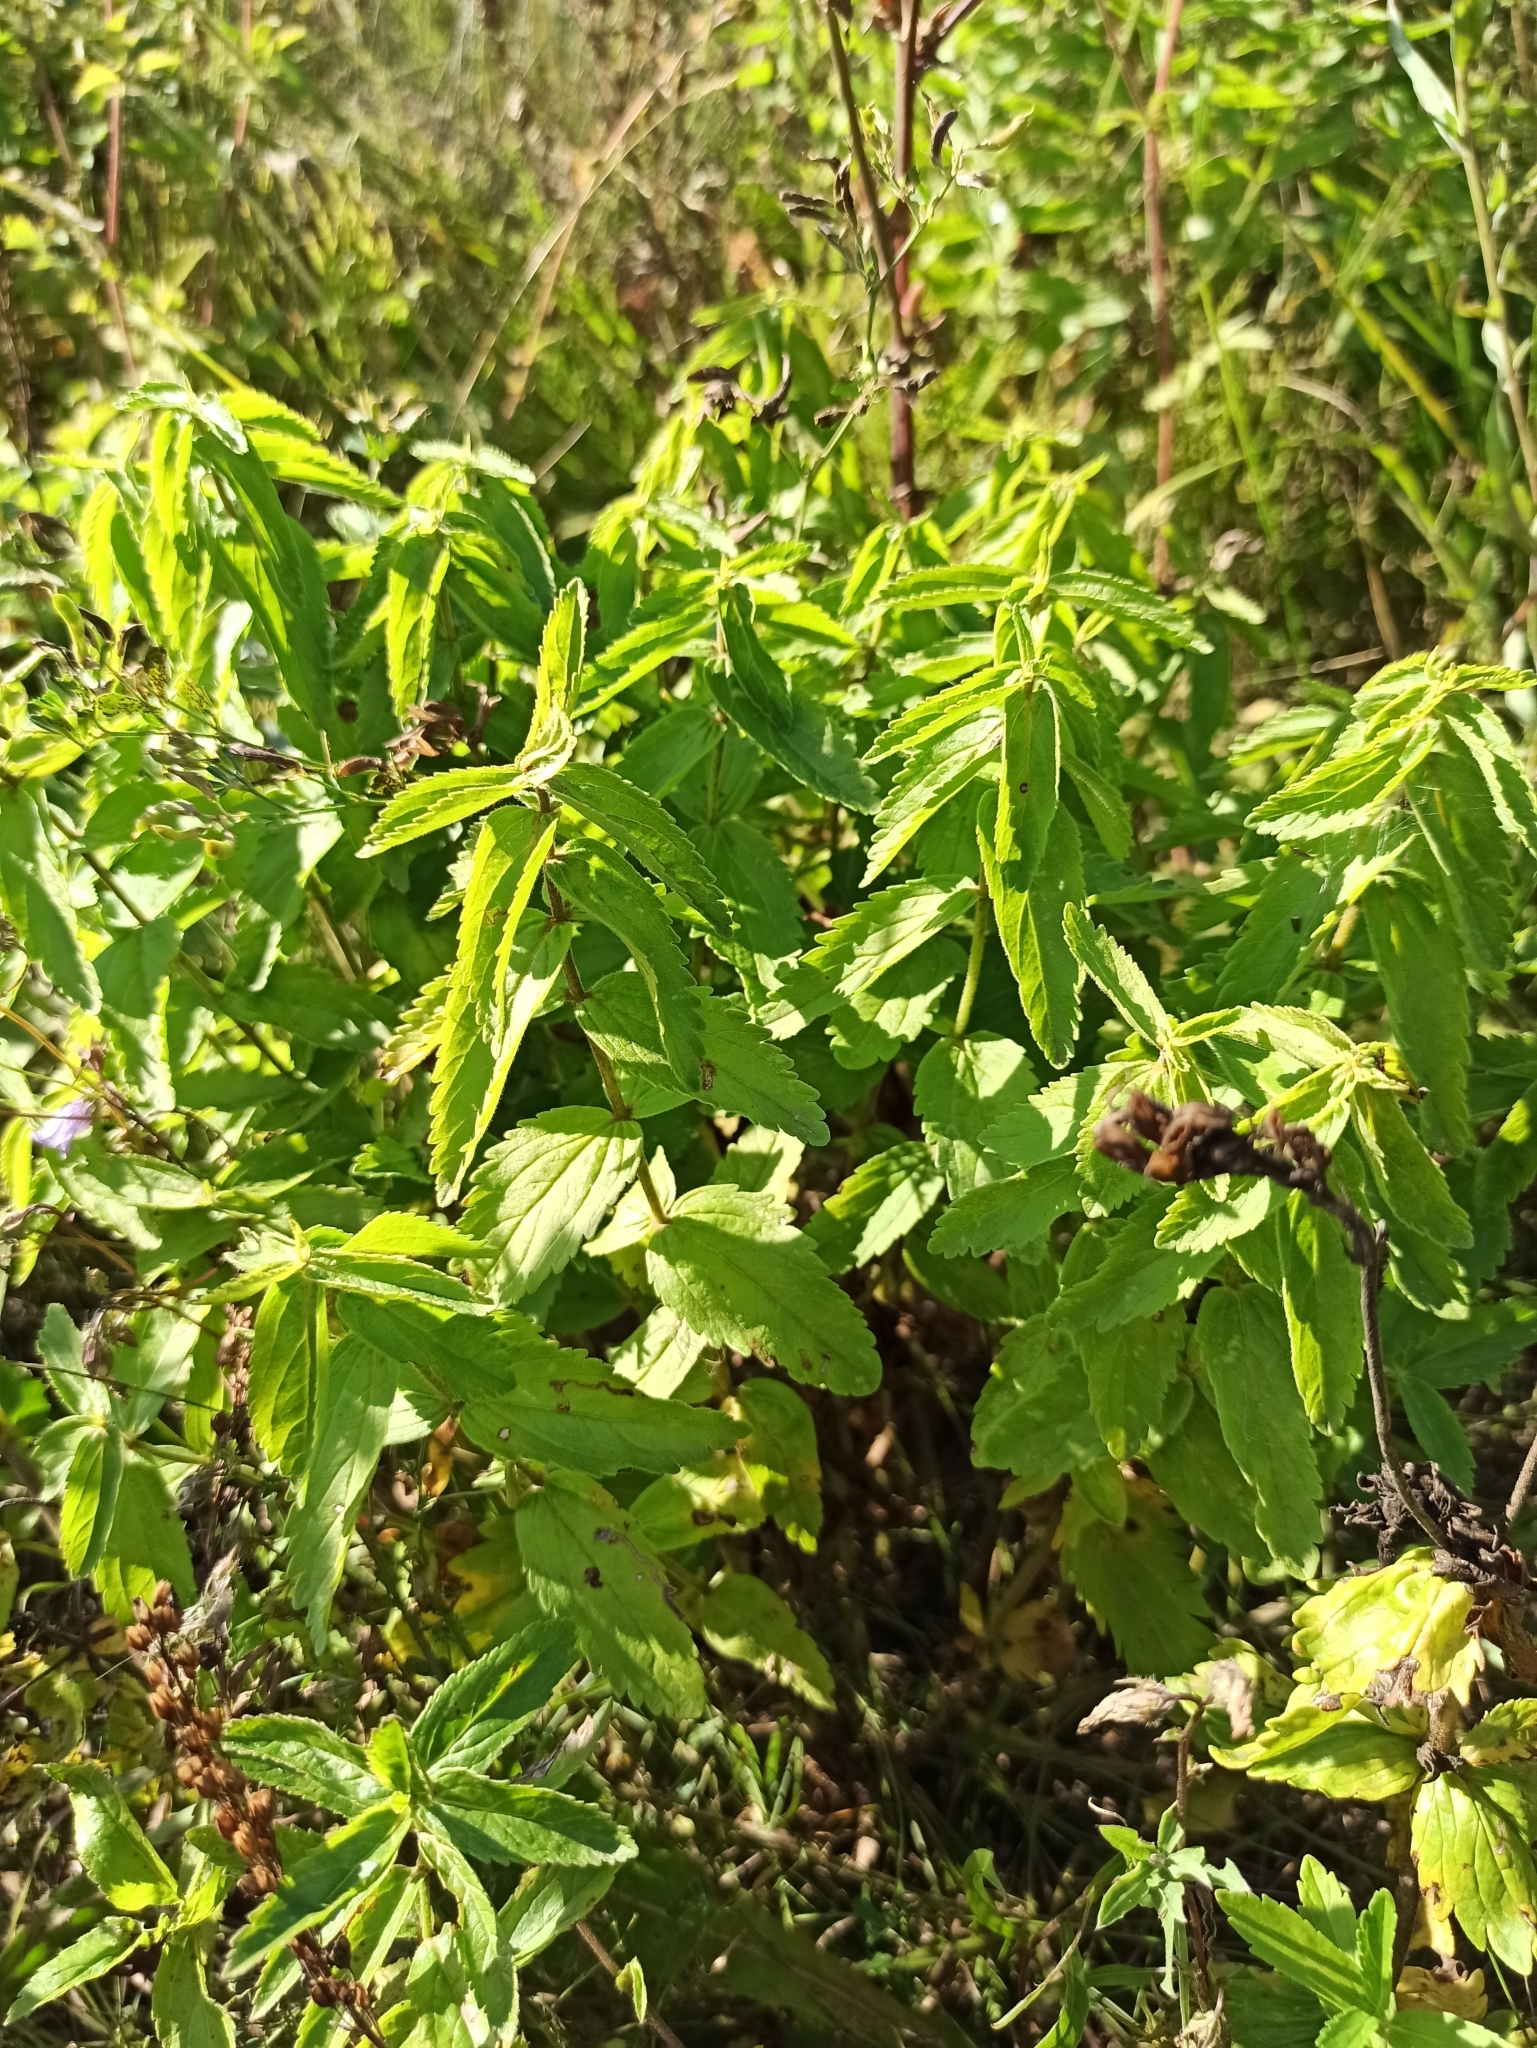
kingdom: Plantae
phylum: Tracheophyta
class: Magnoliopsida
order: Lamiales
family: Plantaginaceae
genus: Veronica
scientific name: Veronica teucrium
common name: Large speedwell
